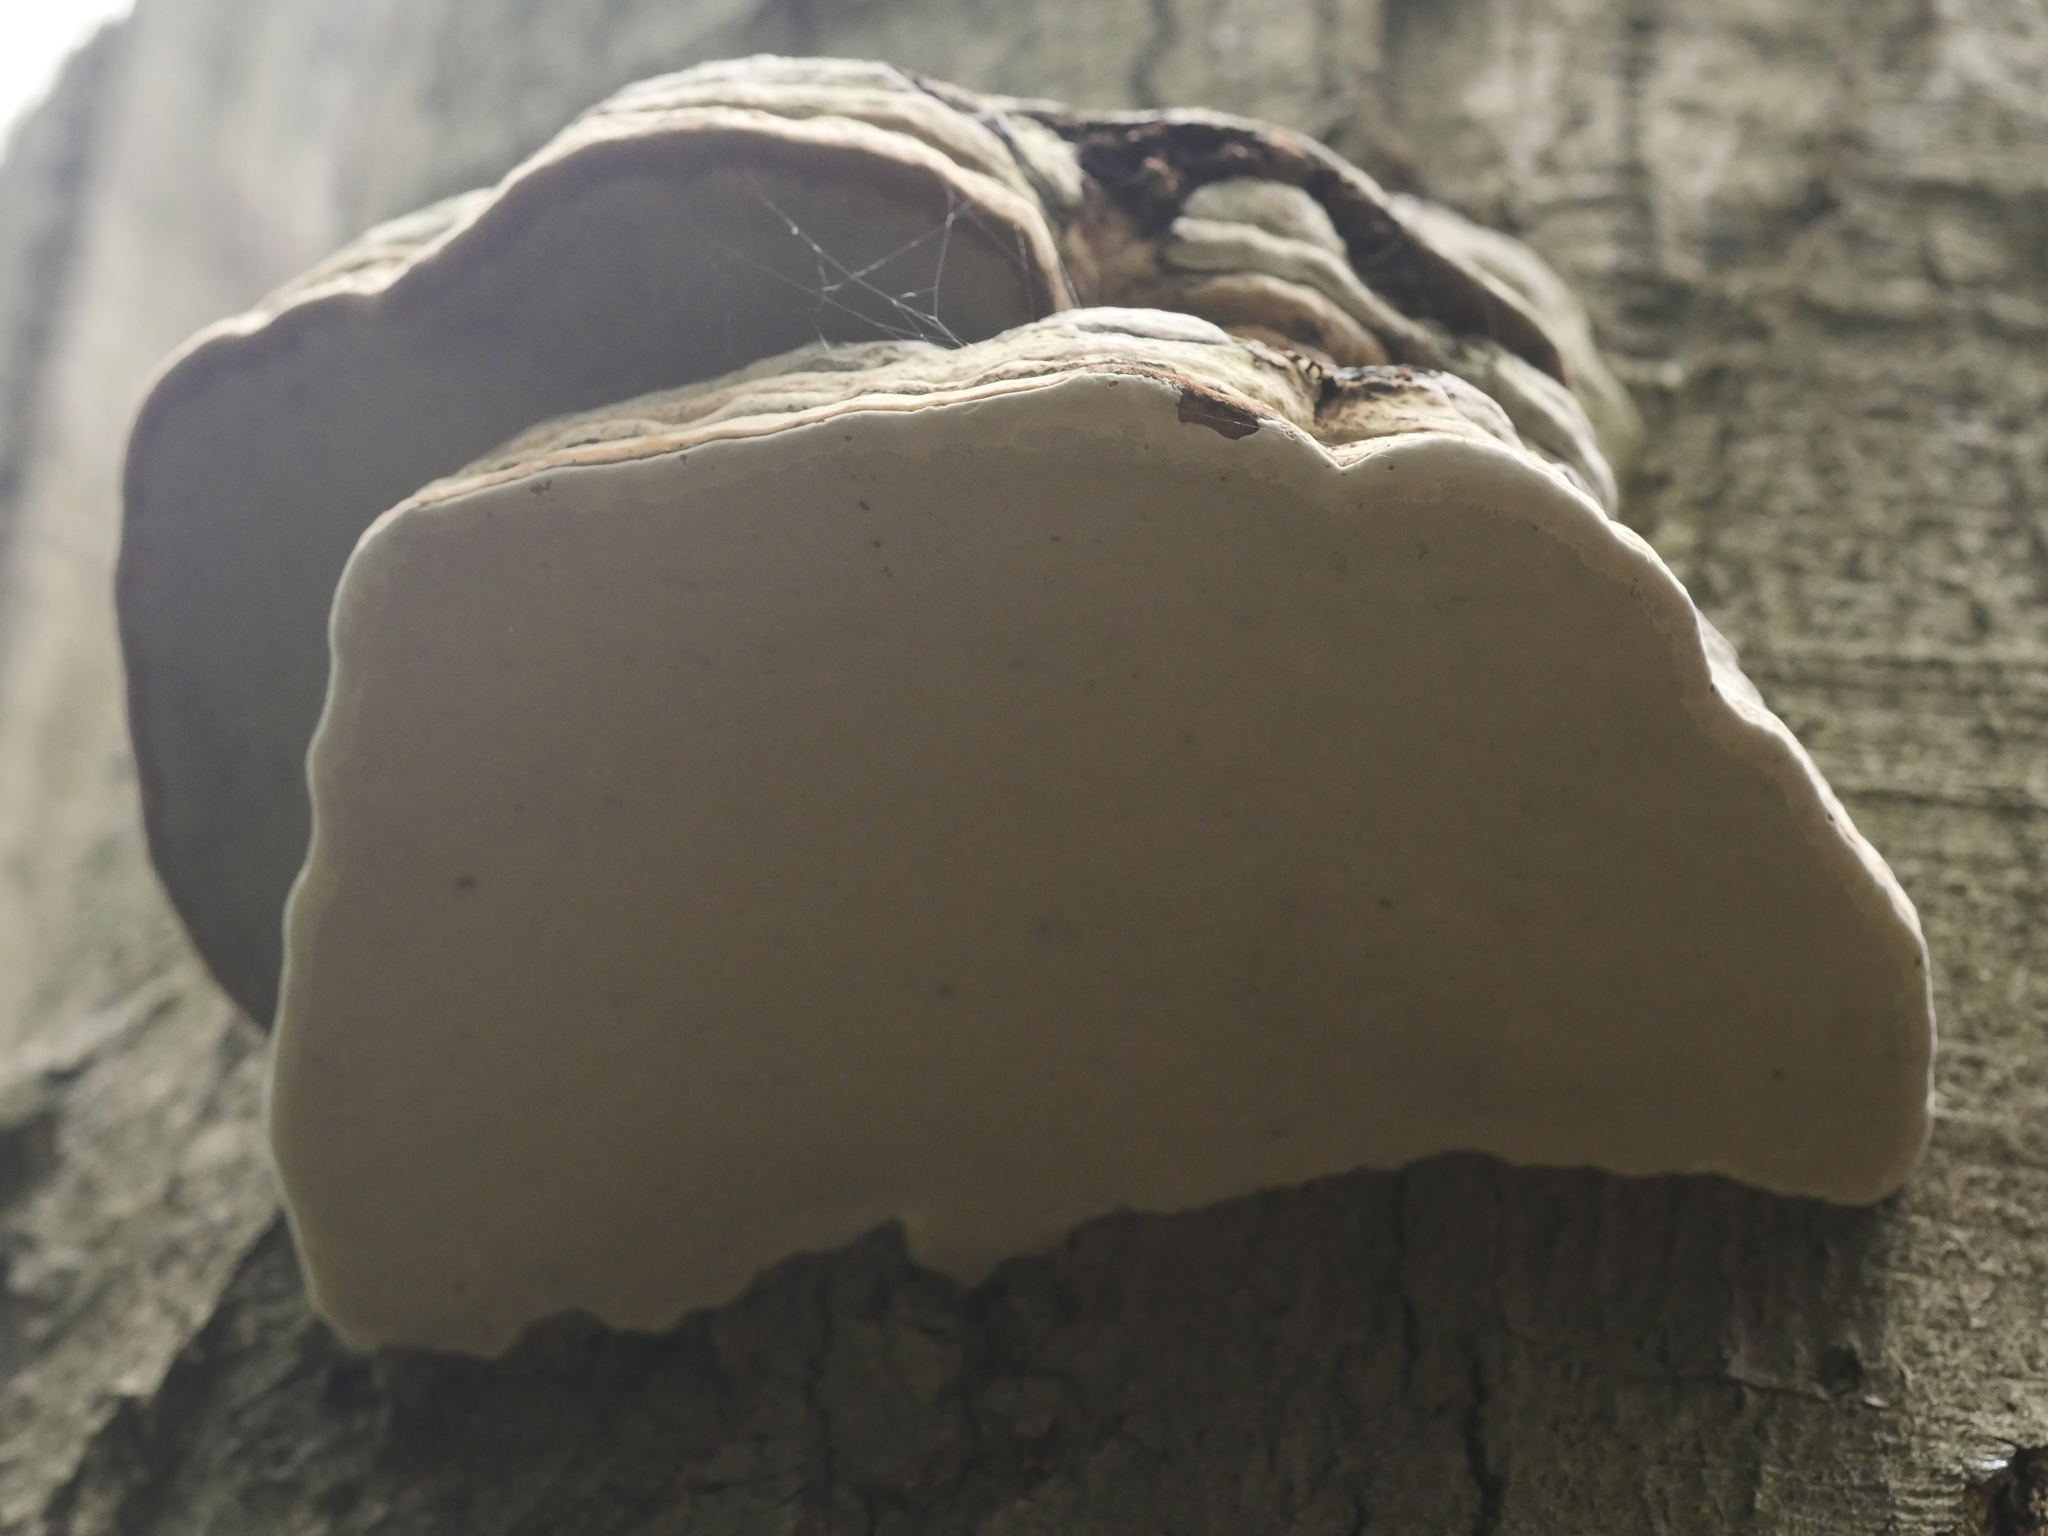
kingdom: Fungi
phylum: Basidiomycota
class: Agaricomycetes
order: Polyporales
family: Polyporaceae
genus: Fomes
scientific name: Fomes fomentarius
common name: Hoof fungus
